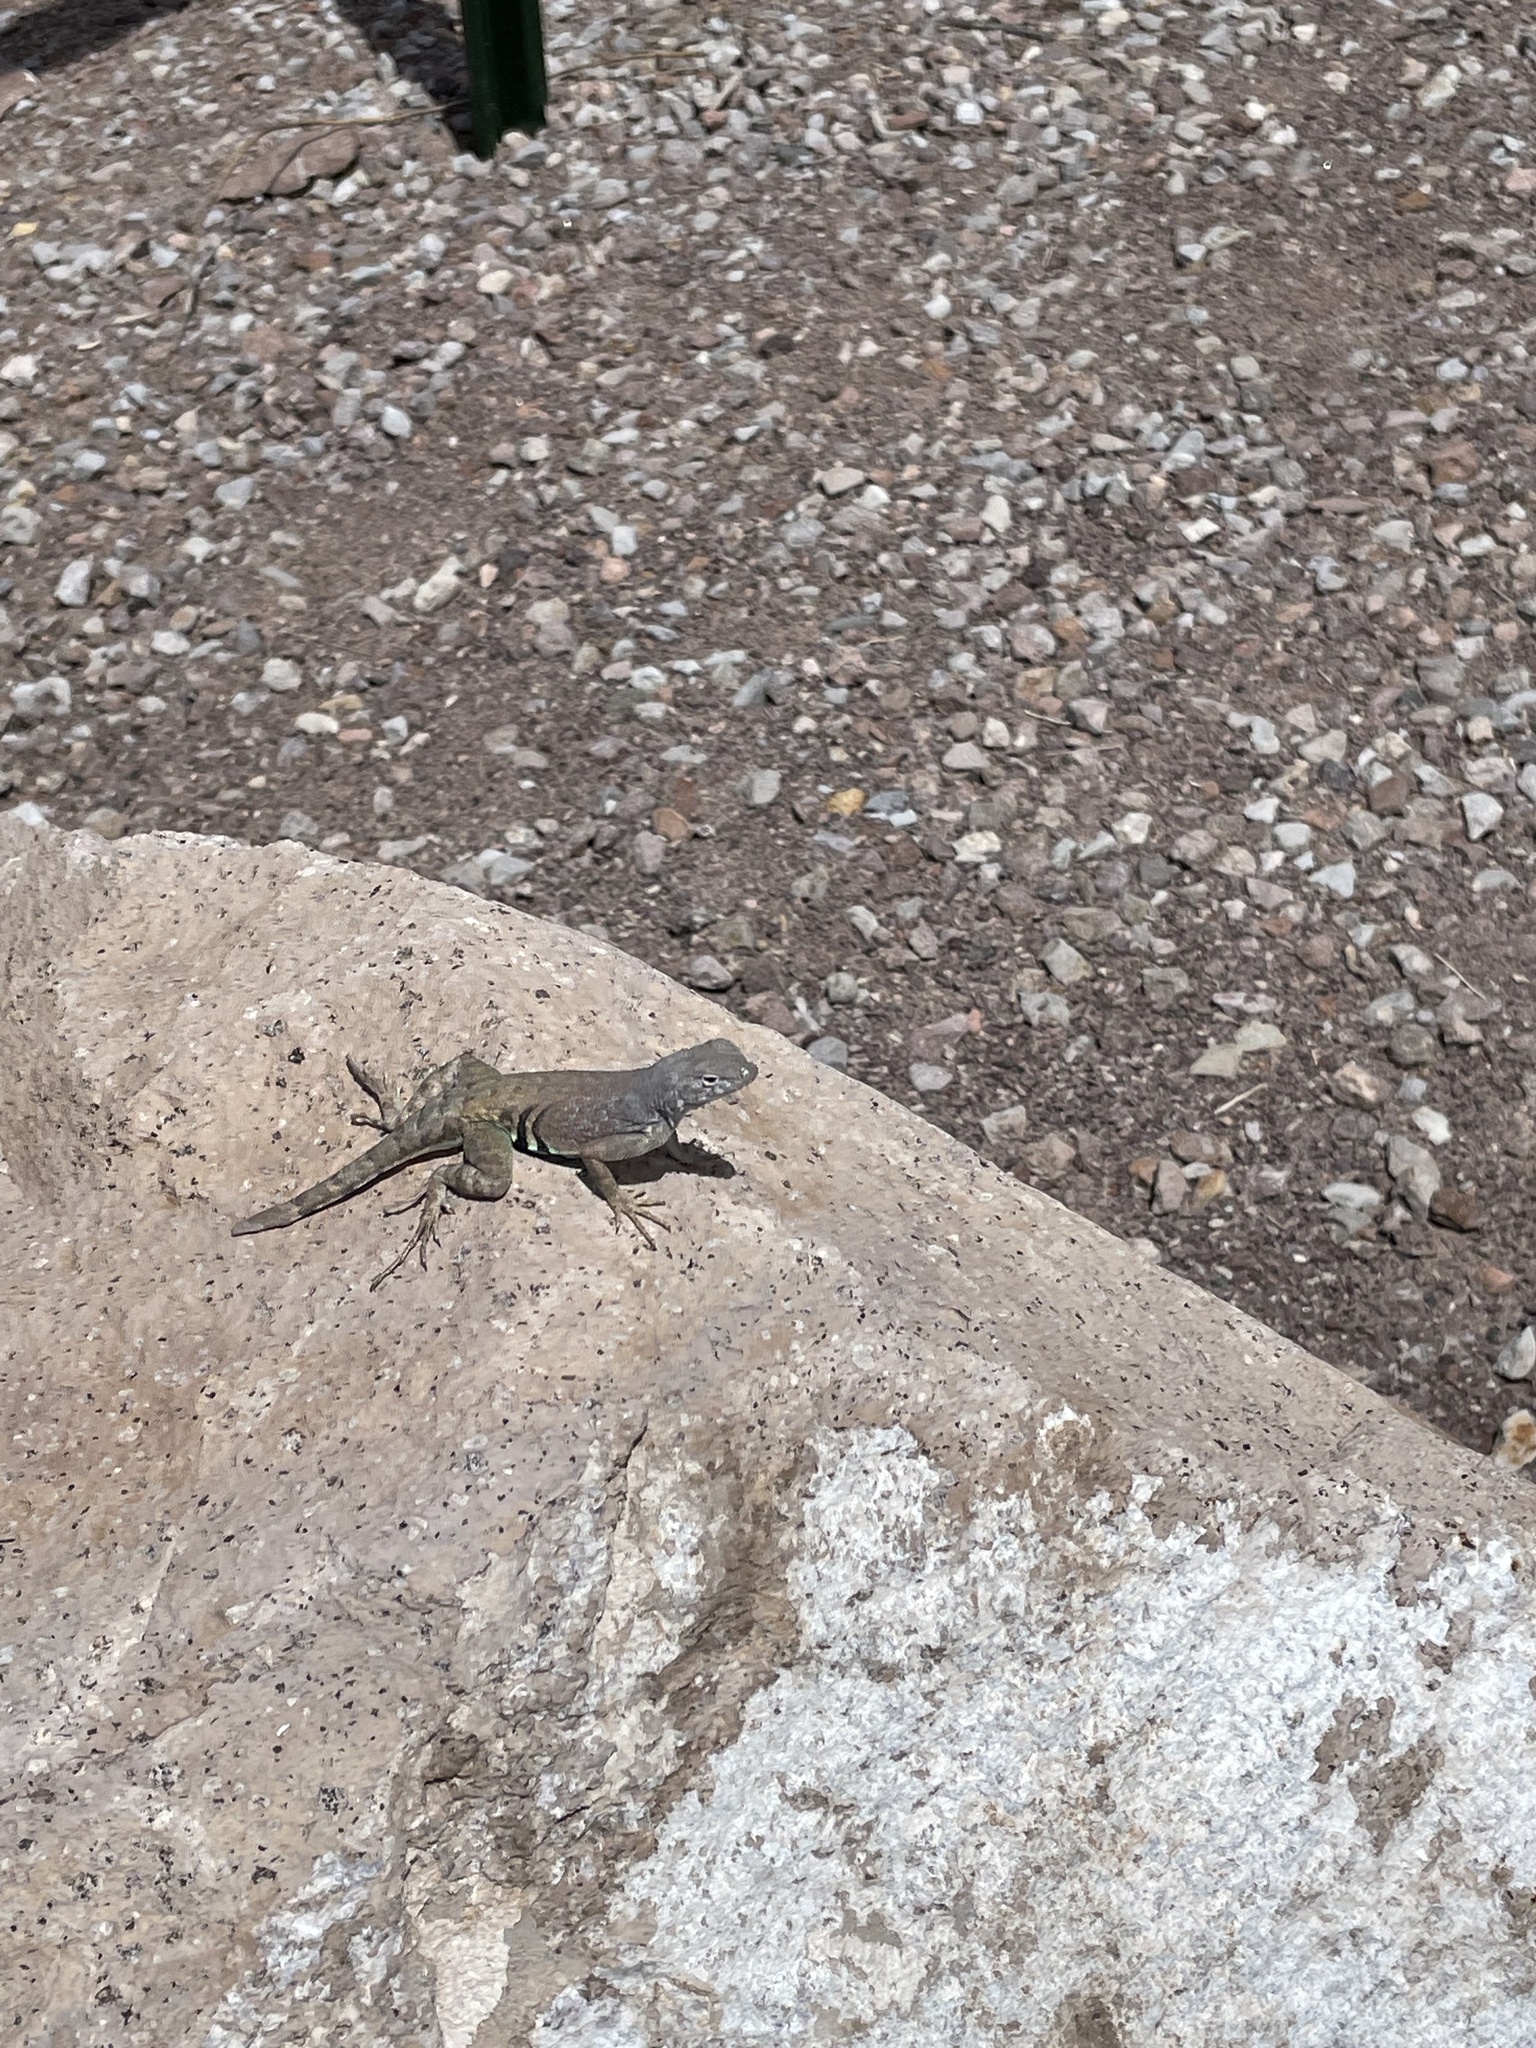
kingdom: Animalia
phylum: Chordata
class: Squamata
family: Phrynosomatidae
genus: Cophosaurus
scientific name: Cophosaurus texanus
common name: Greater earless lizard
